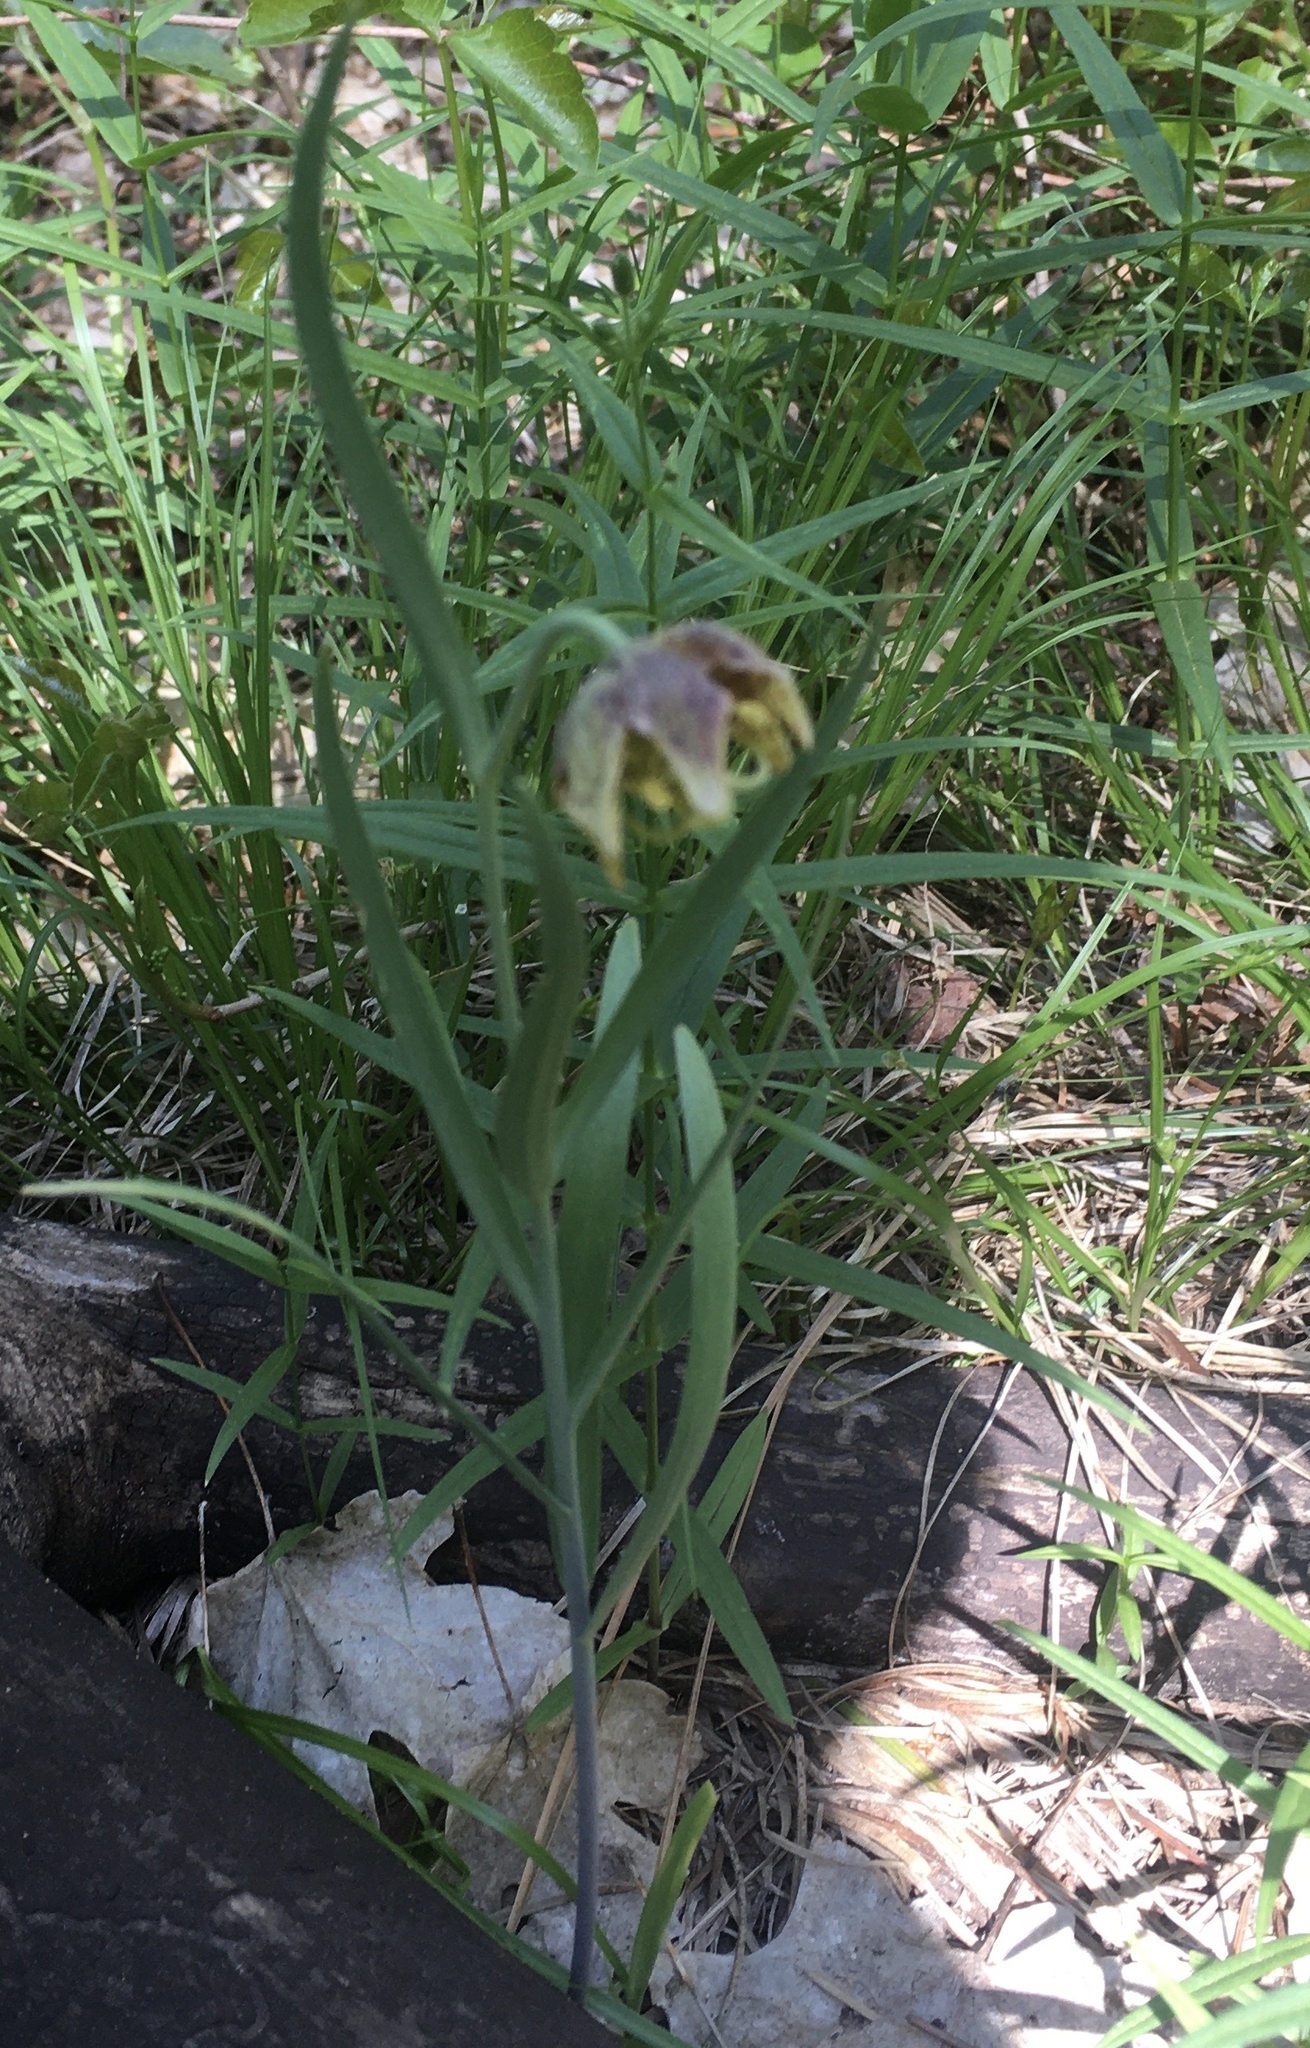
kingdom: Plantae
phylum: Tracheophyta
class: Liliopsida
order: Liliales
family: Liliaceae
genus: Fritillaria
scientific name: Fritillaria atropurpurea
